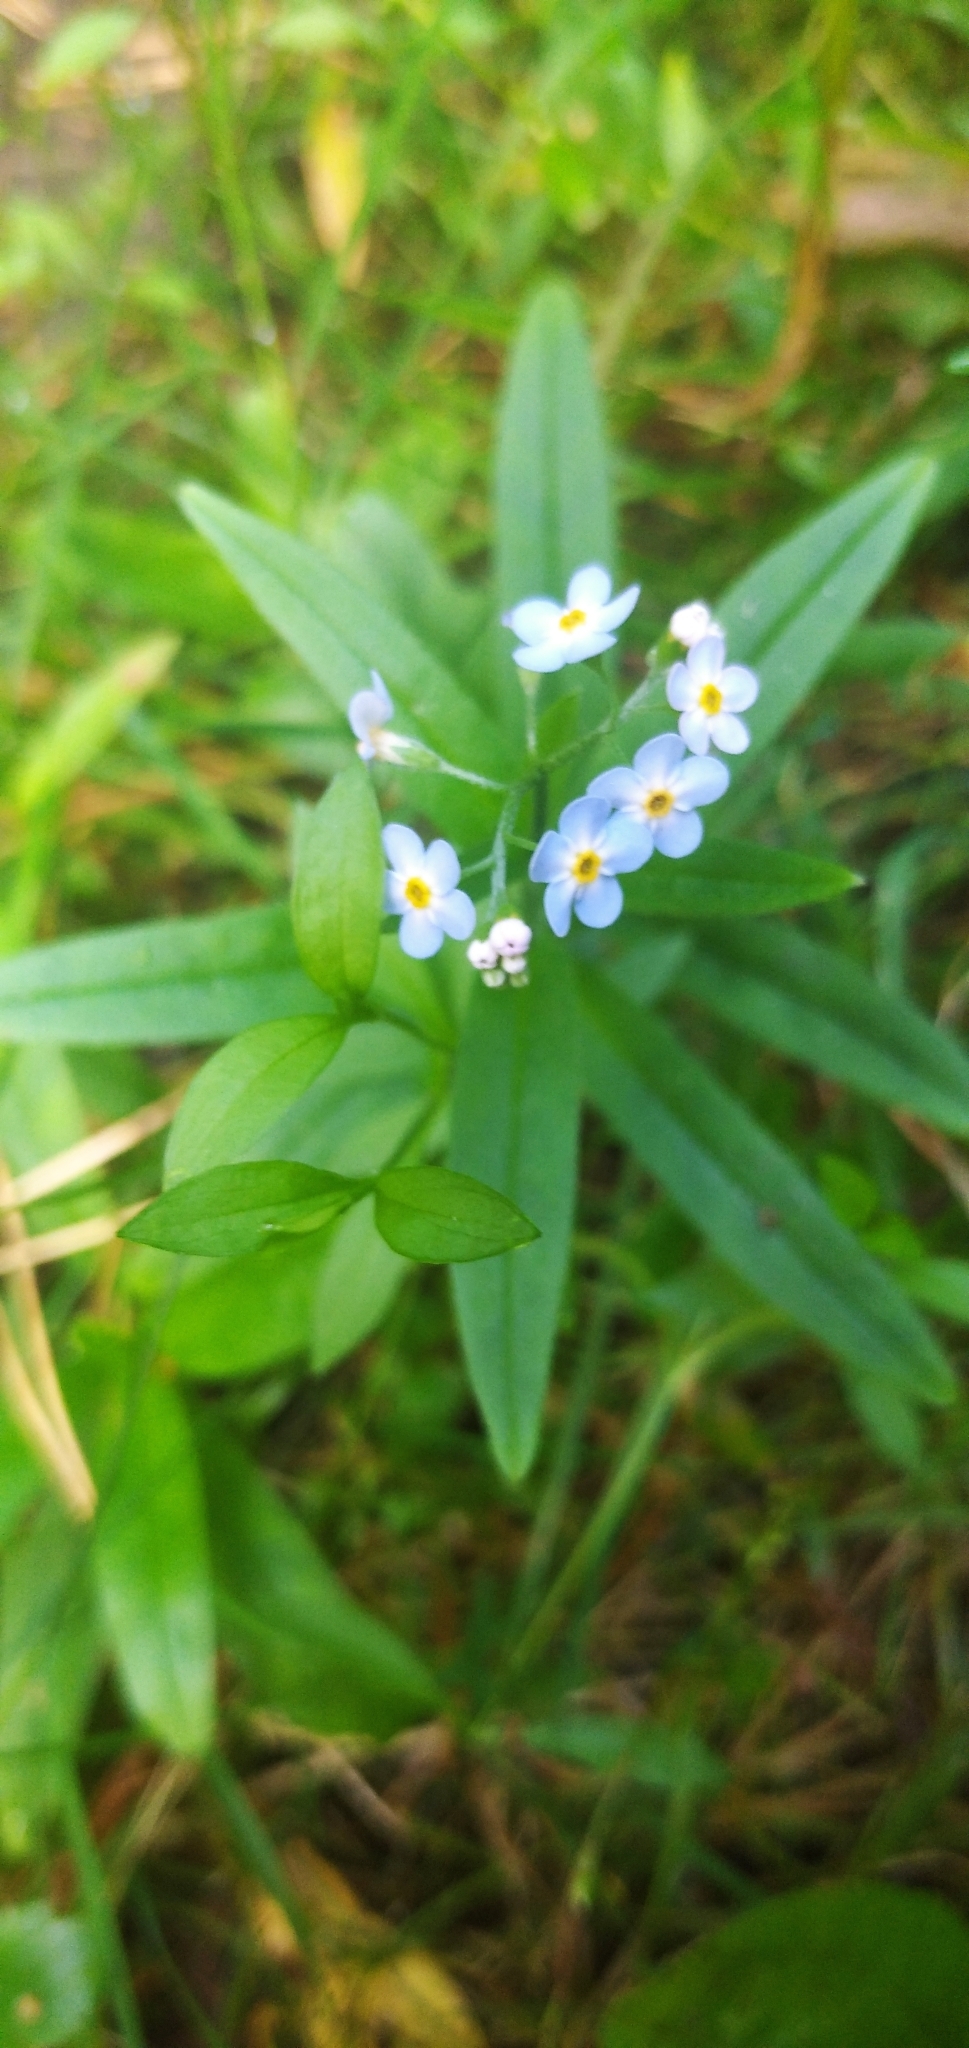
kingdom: Plantae
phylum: Tracheophyta
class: Magnoliopsida
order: Boraginales
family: Boraginaceae
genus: Myosotis
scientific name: Myosotis scorpioides
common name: Water forget-me-not
